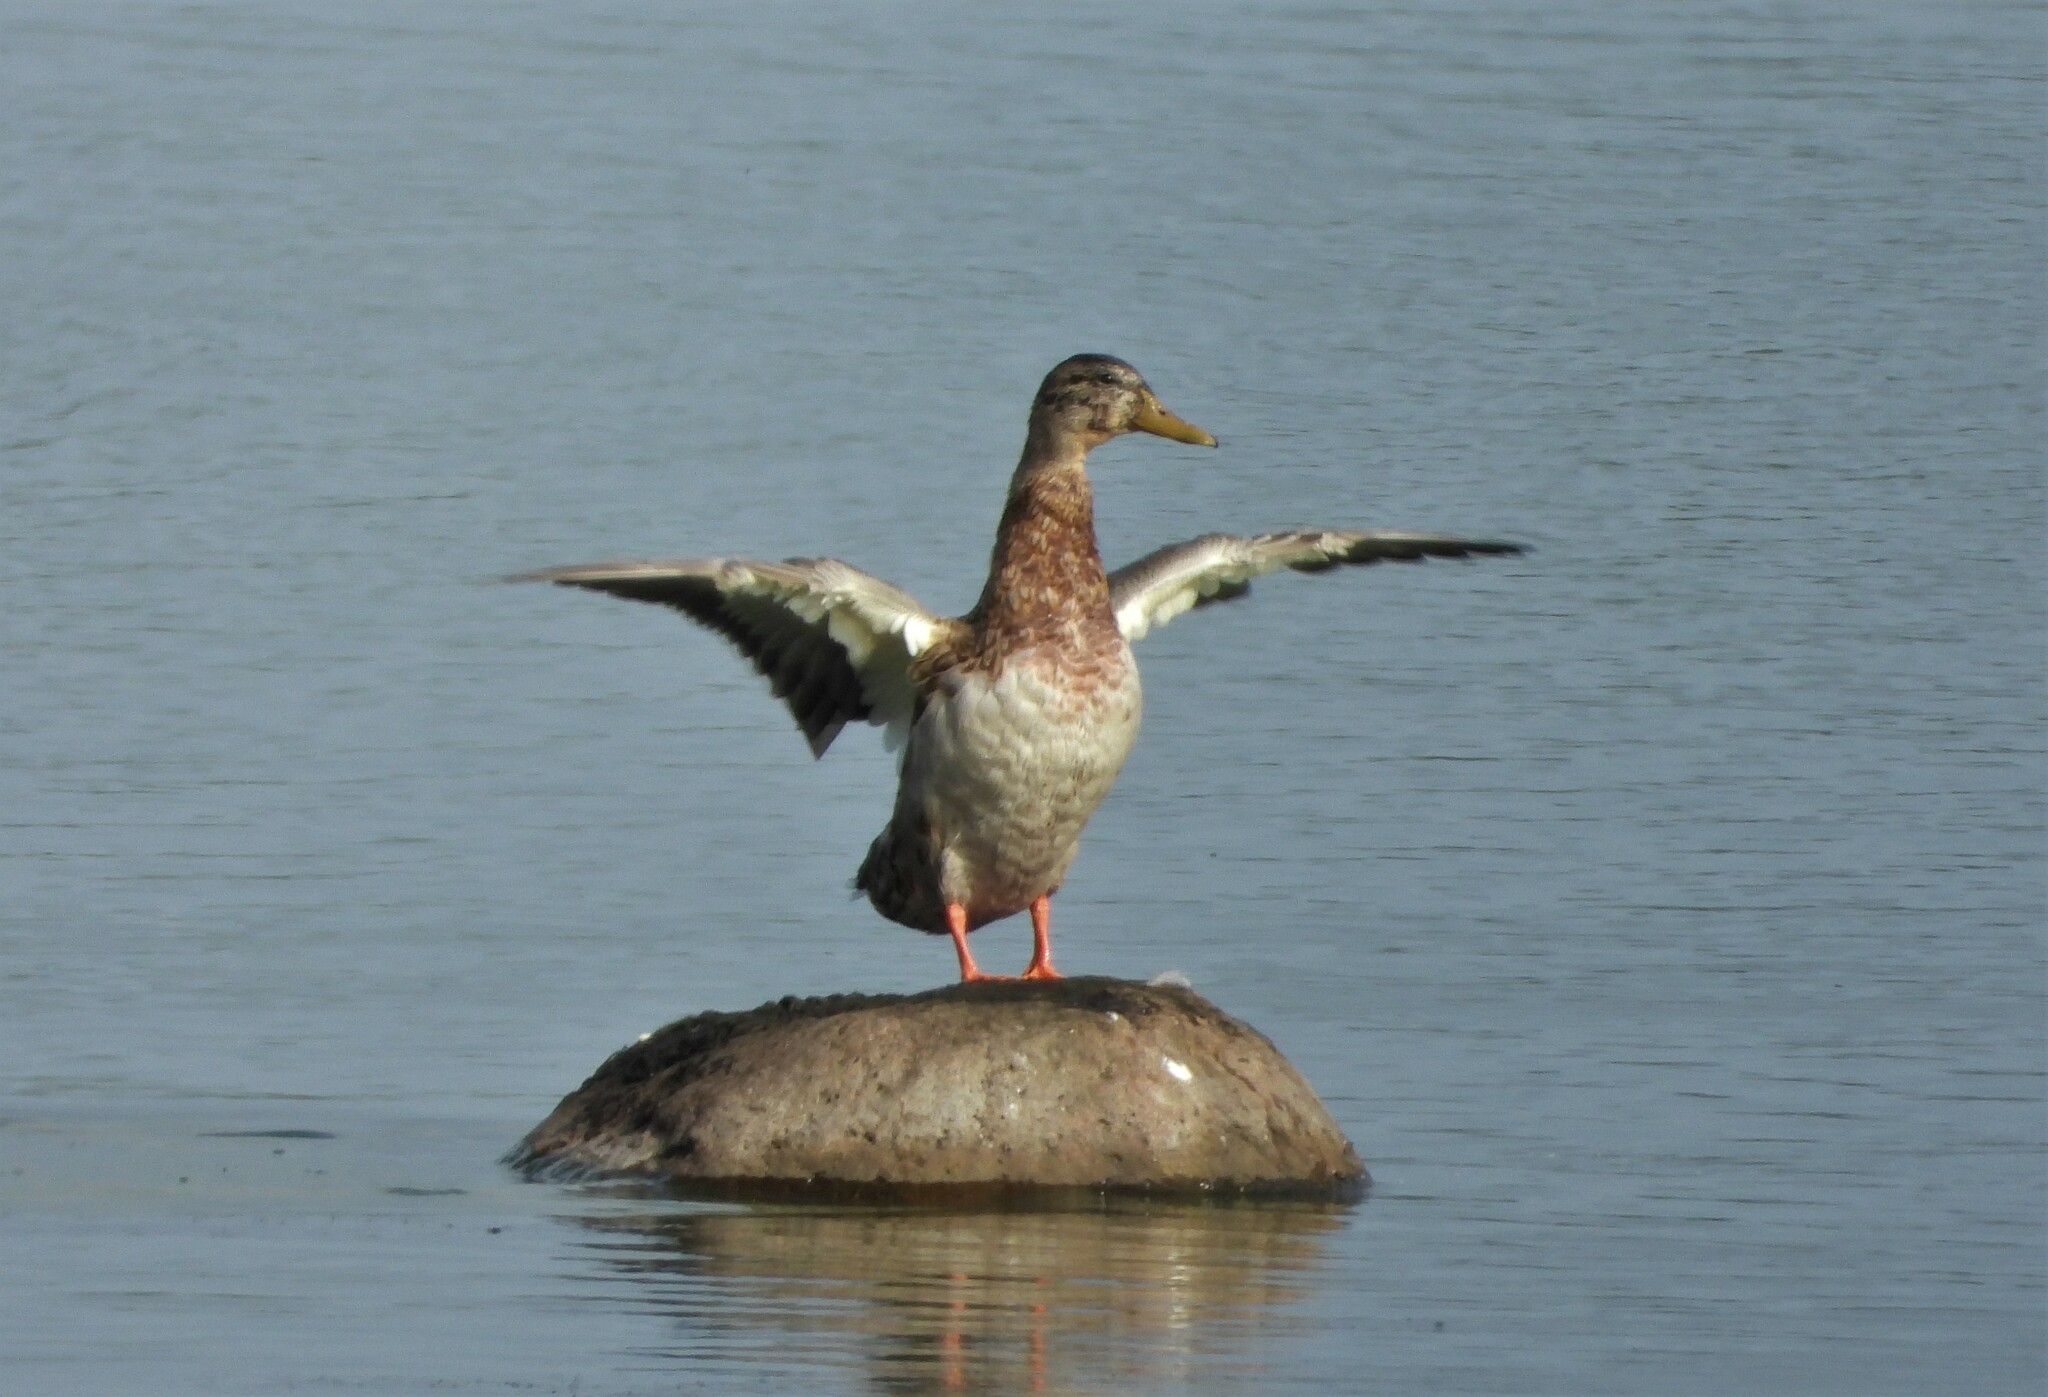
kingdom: Animalia
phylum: Chordata
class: Aves
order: Anseriformes
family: Anatidae
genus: Anas
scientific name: Anas platyrhynchos
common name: Mallard
